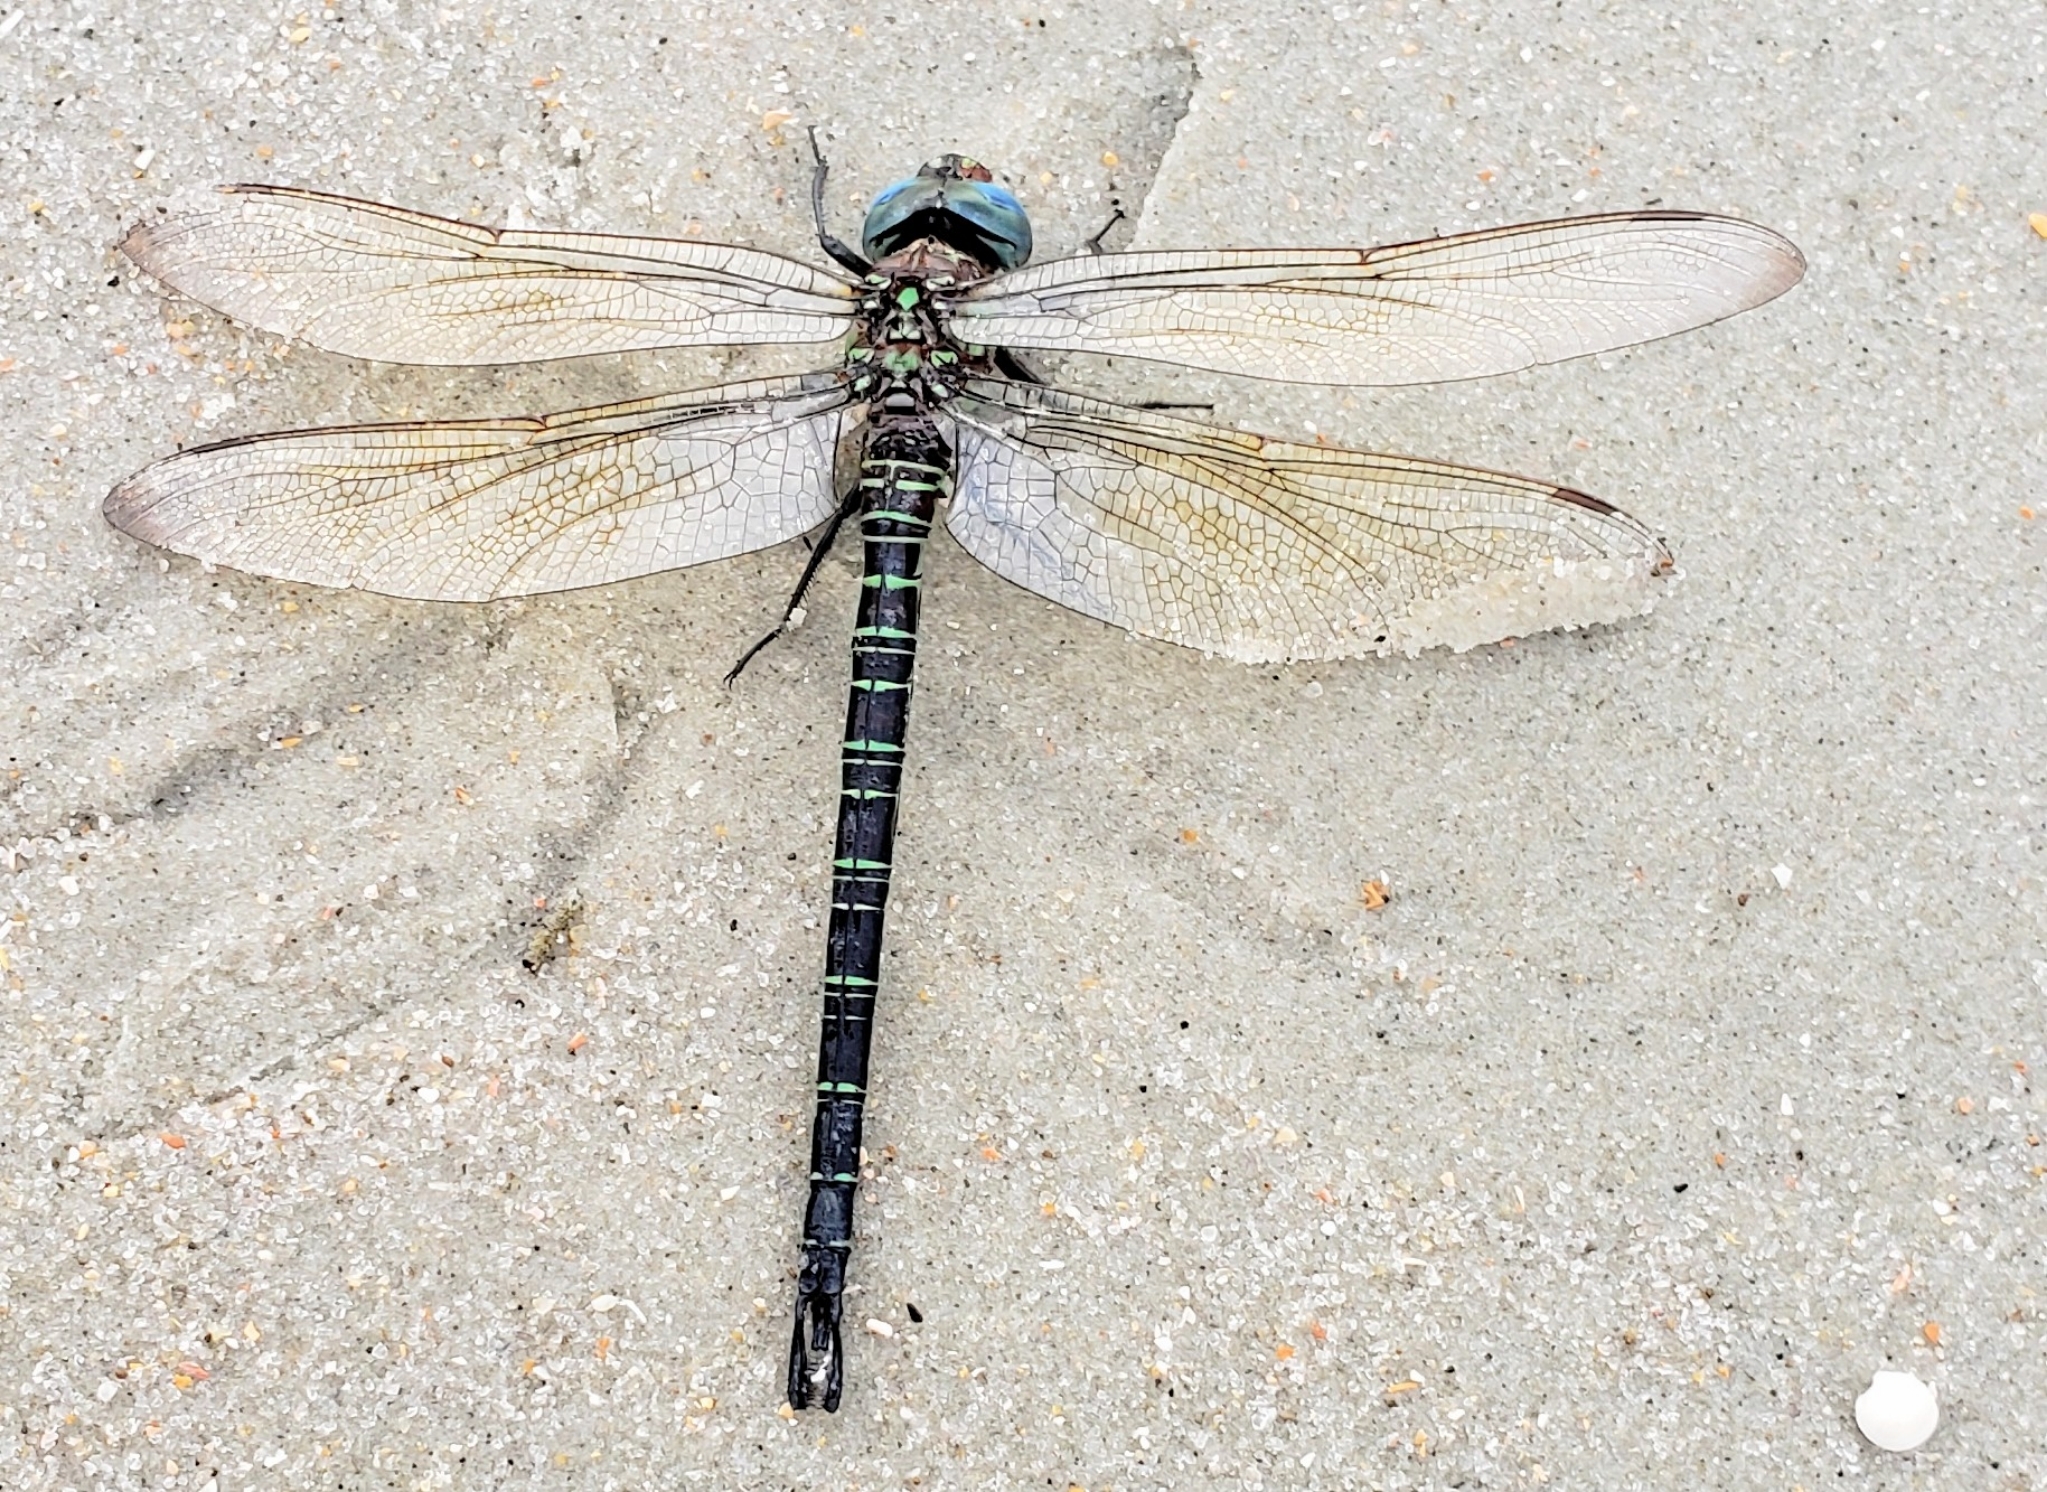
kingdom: Animalia
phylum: Arthropoda
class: Insecta
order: Odonata
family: Aeshnidae
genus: Epiaeschna
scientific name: Epiaeschna heros
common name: Swamp darner
